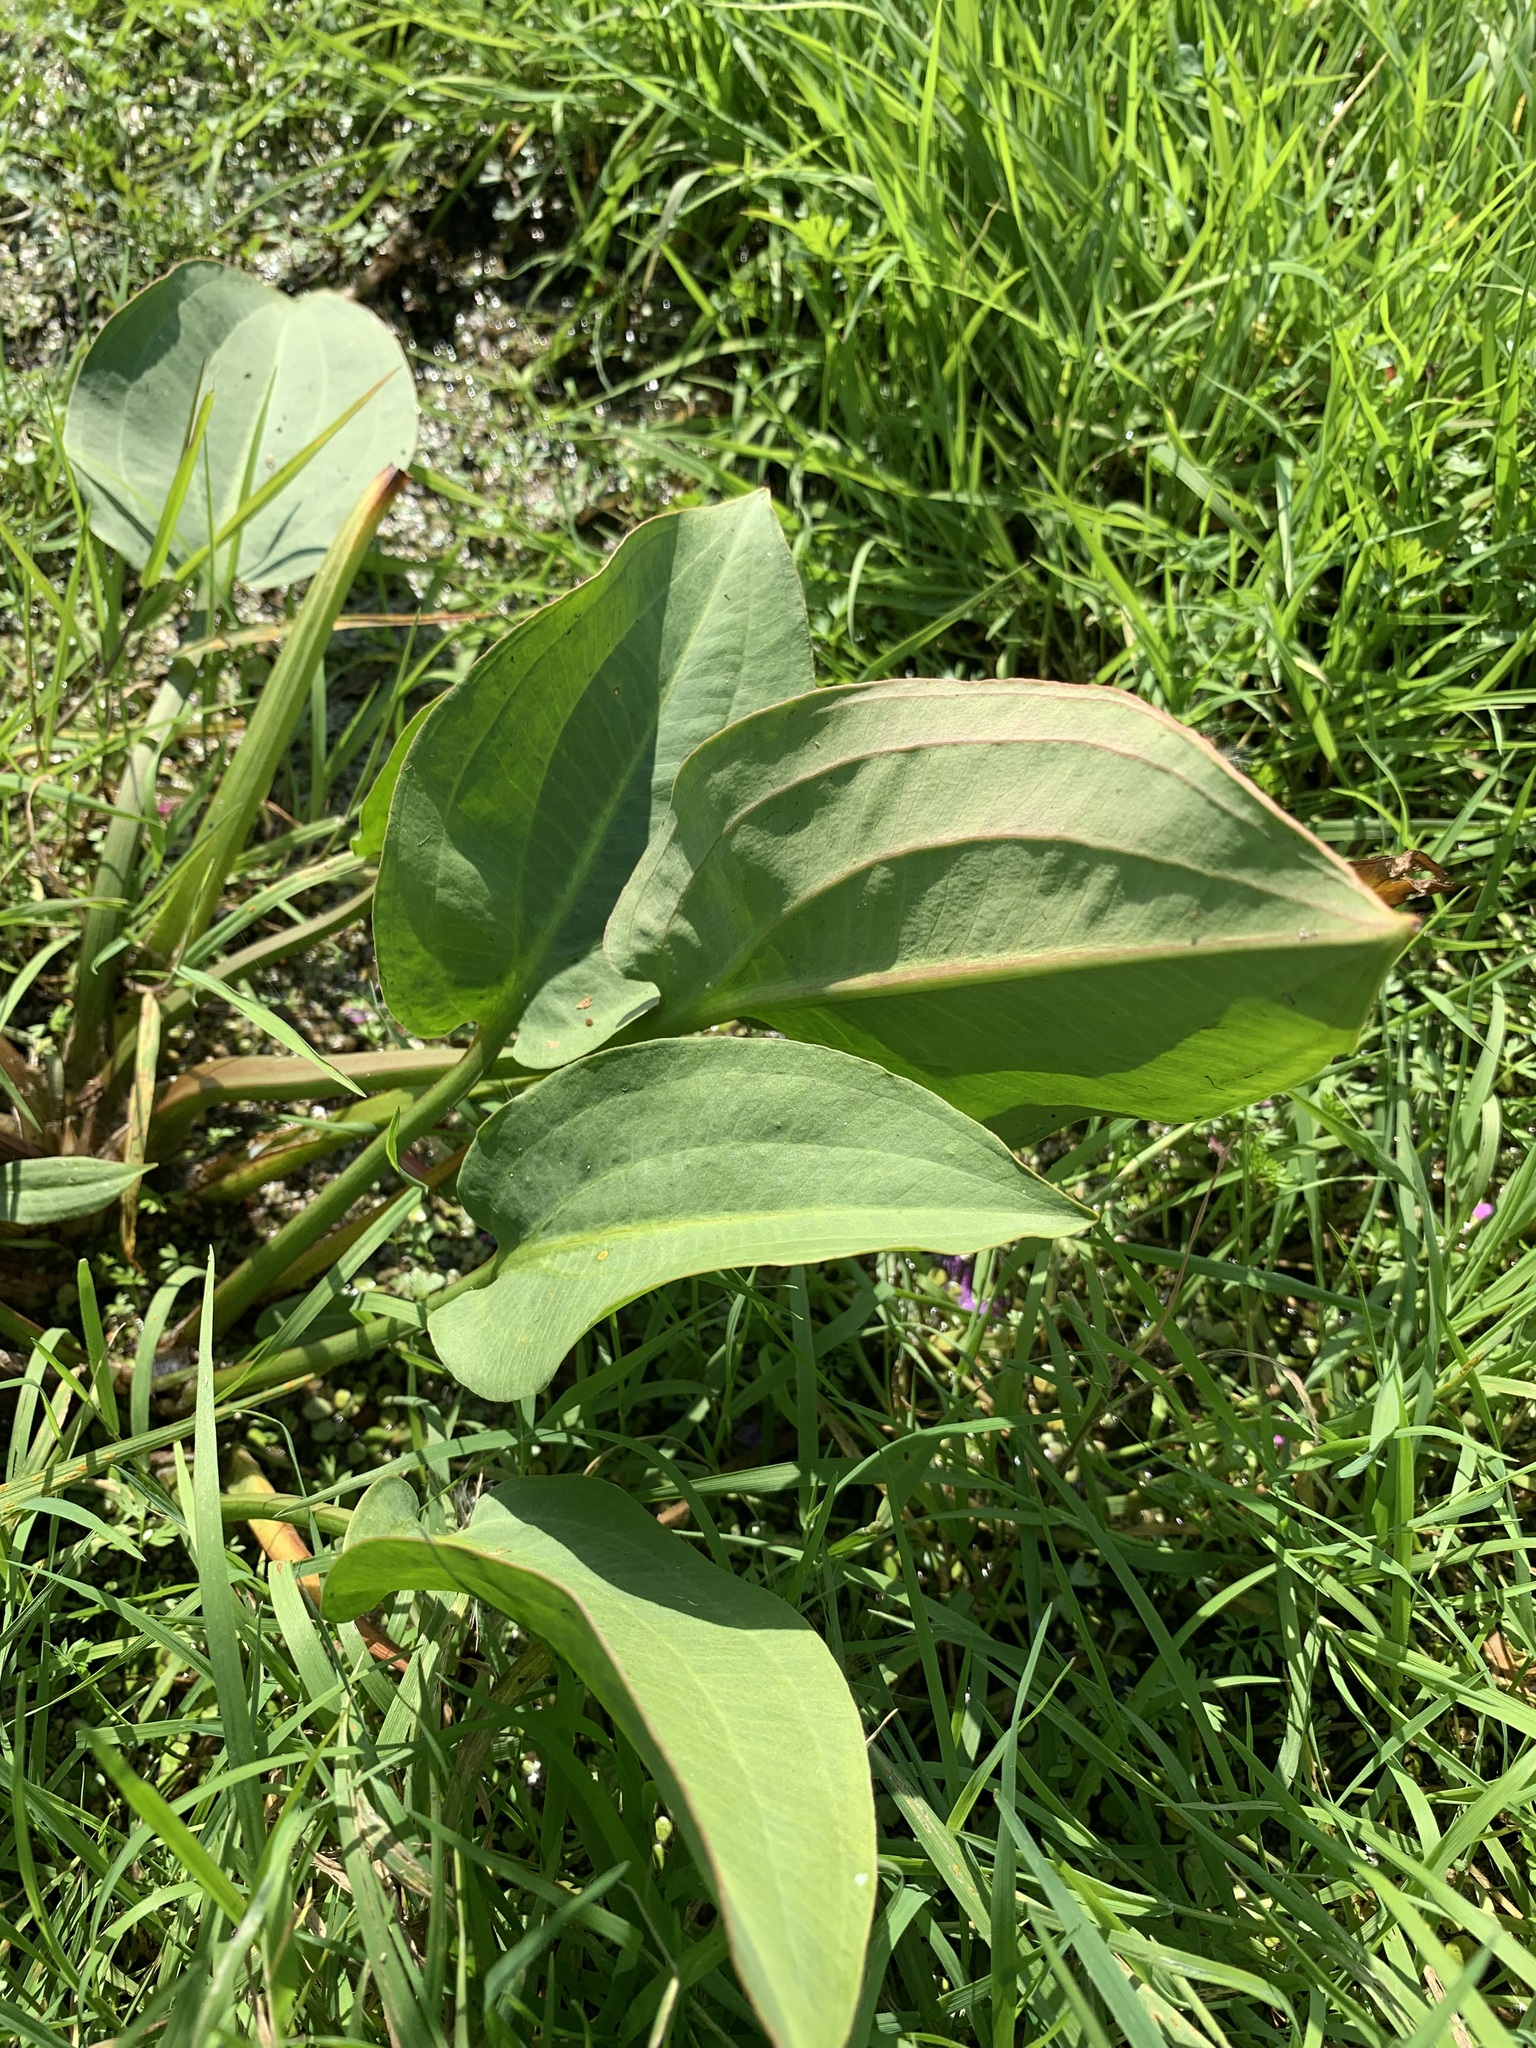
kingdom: Plantae
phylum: Tracheophyta
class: Liliopsida
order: Alismatales
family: Alismataceae
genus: Alisma
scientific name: Alisma plantago-aquatica
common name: Water-plantain
